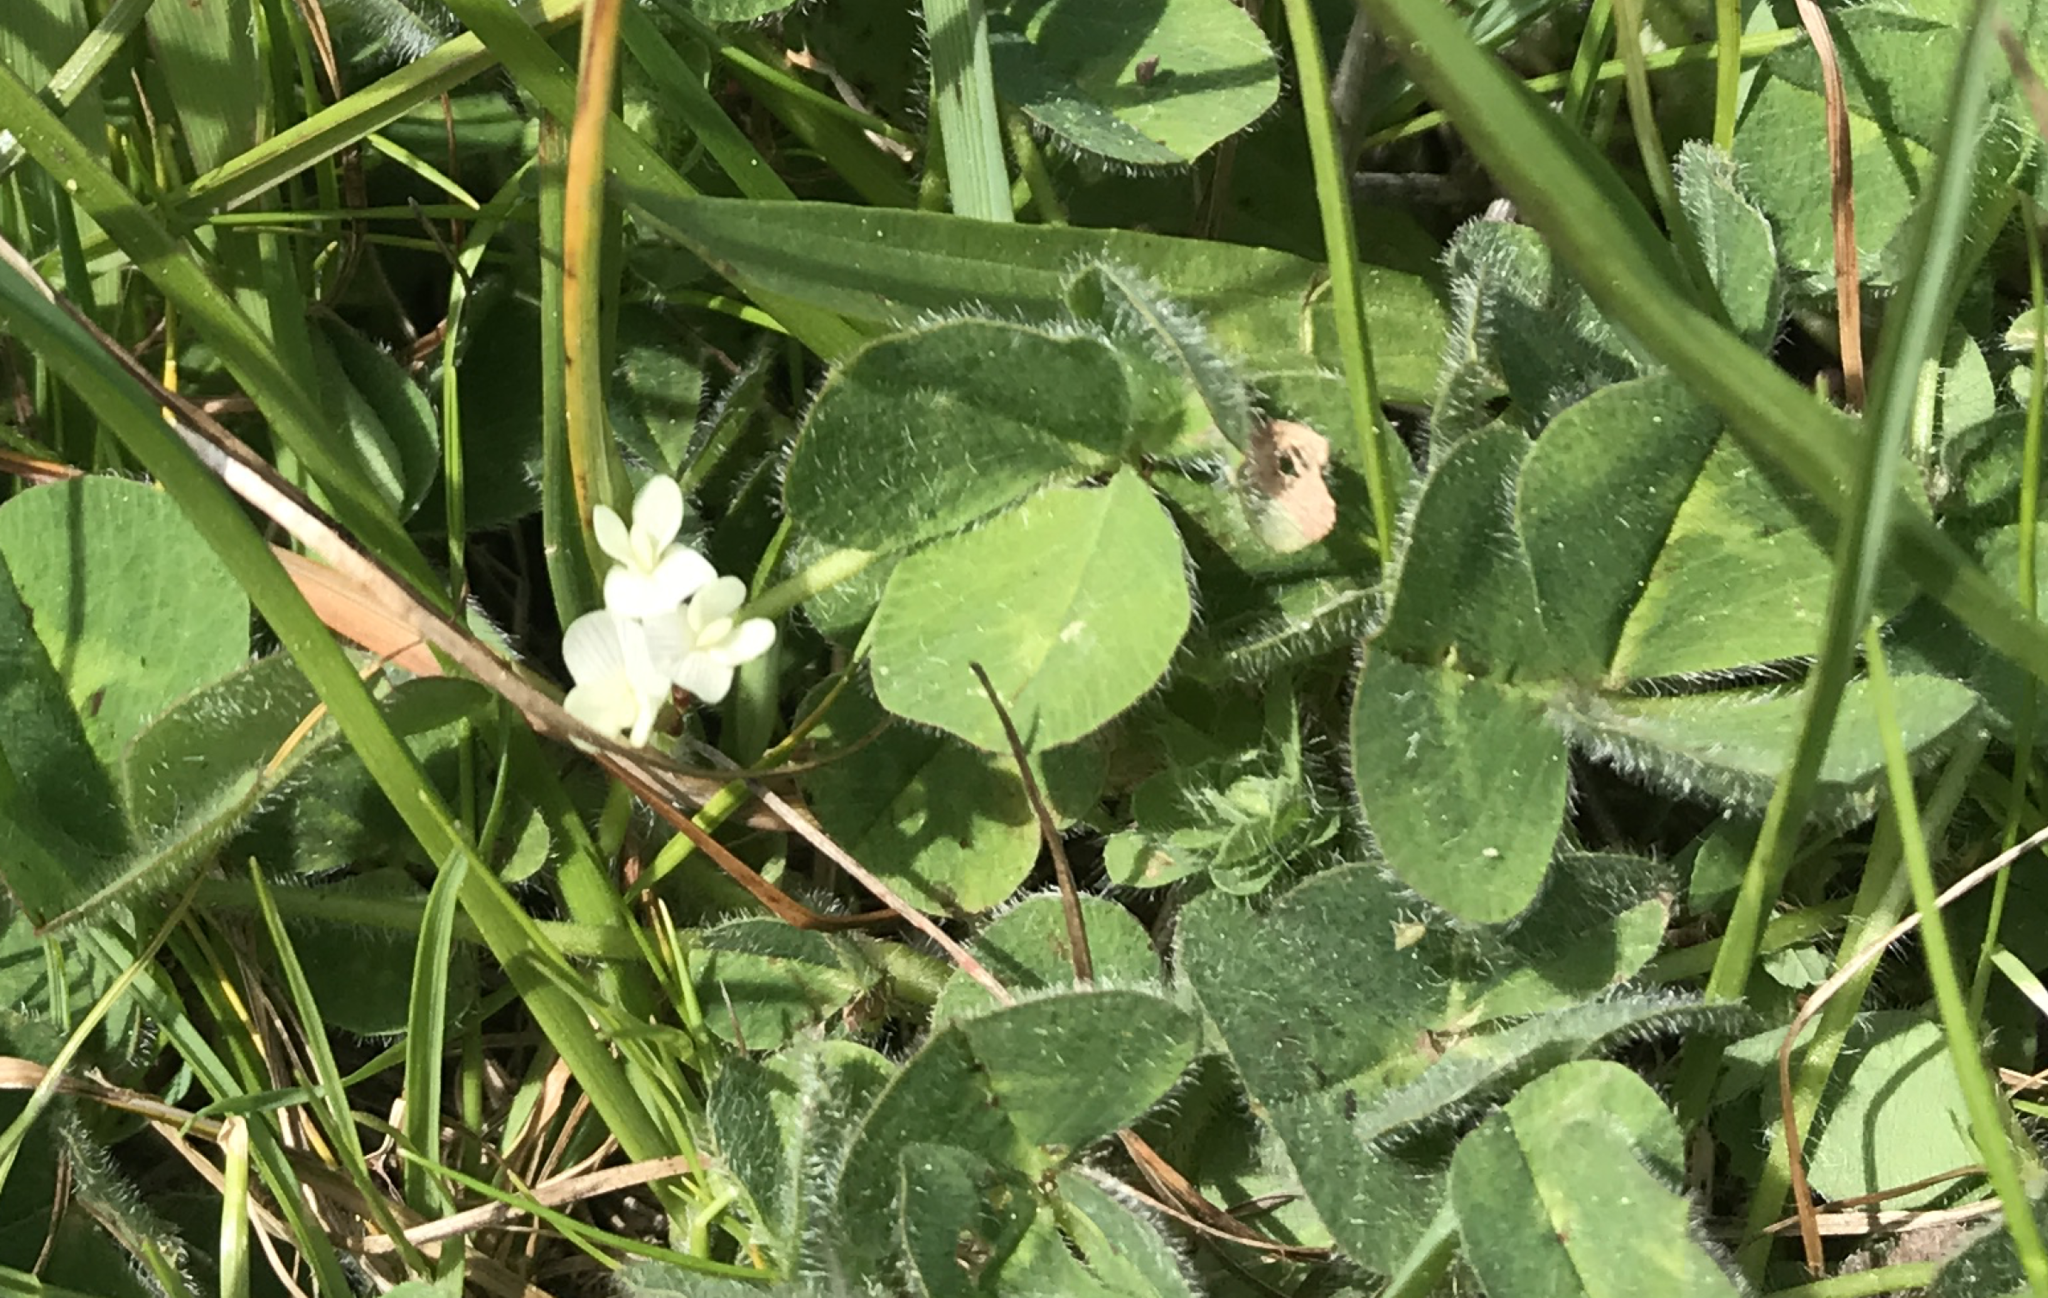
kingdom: Plantae
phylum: Tracheophyta
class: Magnoliopsida
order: Fabales
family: Fabaceae
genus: Trifolium
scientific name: Trifolium subterraneum
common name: Subterranean clover
